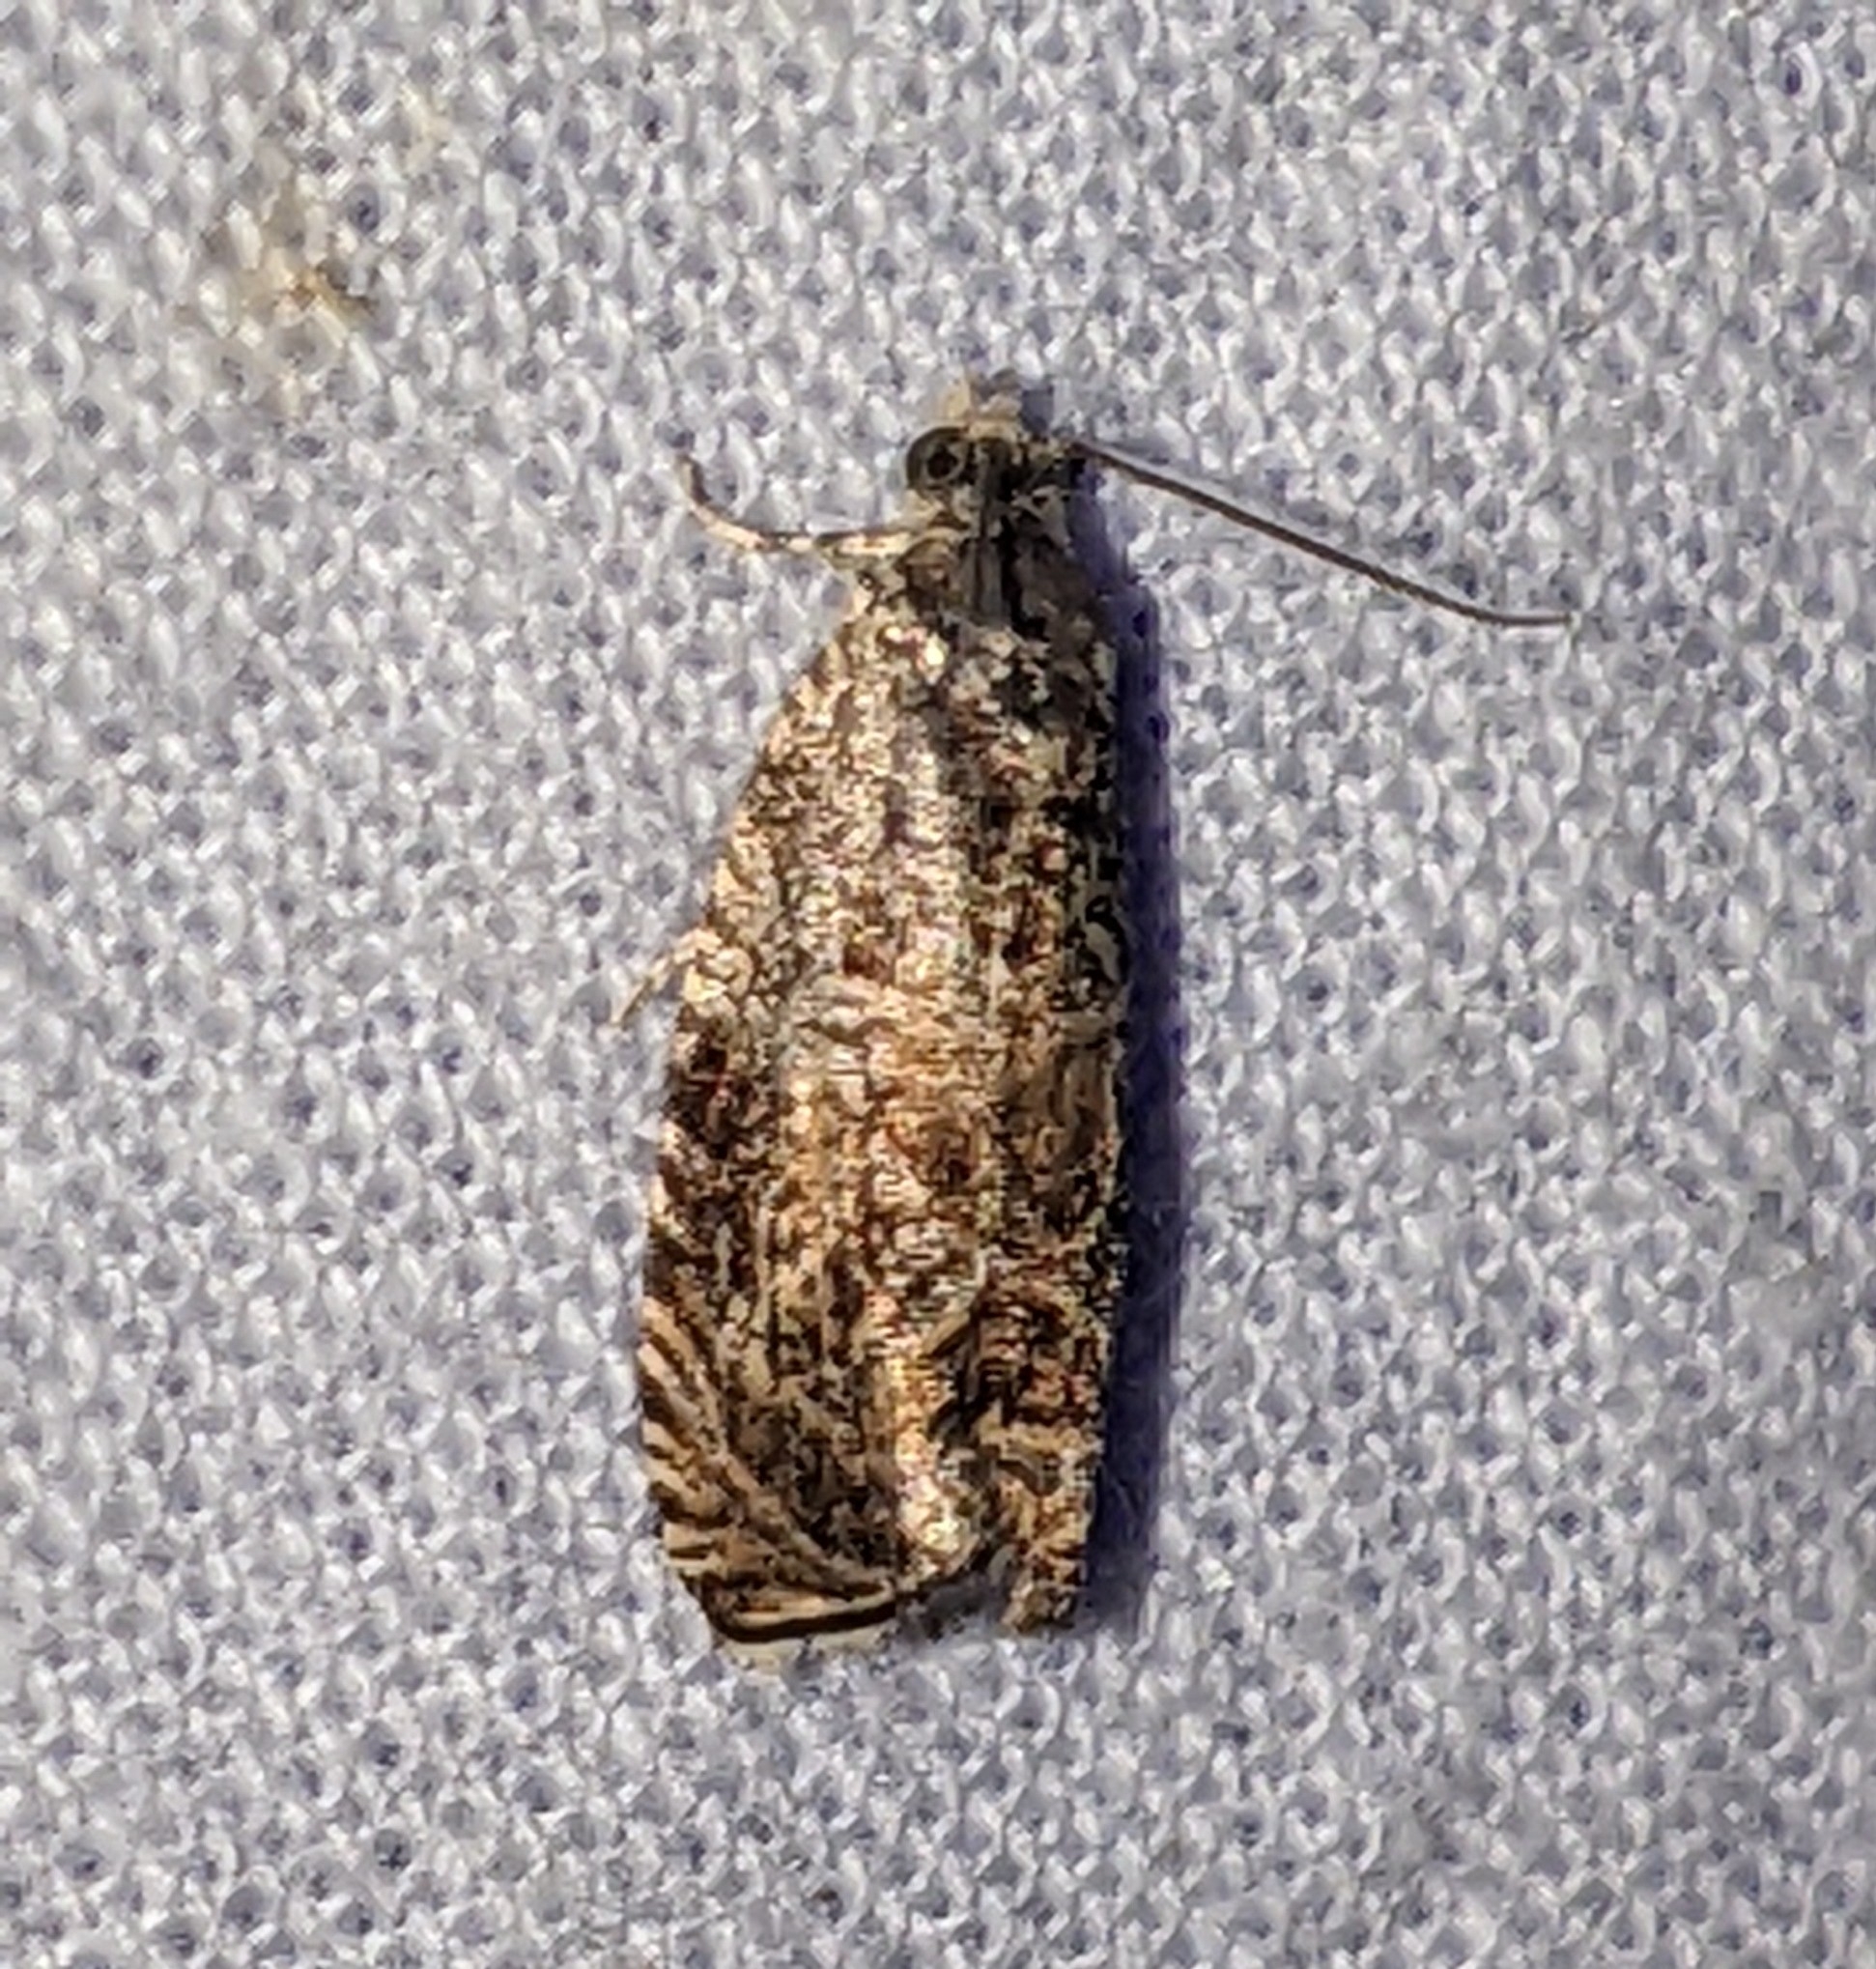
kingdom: Animalia
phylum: Arthropoda
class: Insecta
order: Lepidoptera
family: Tortricidae
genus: Celypha
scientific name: Celypha cespitana
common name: Thyme marble
